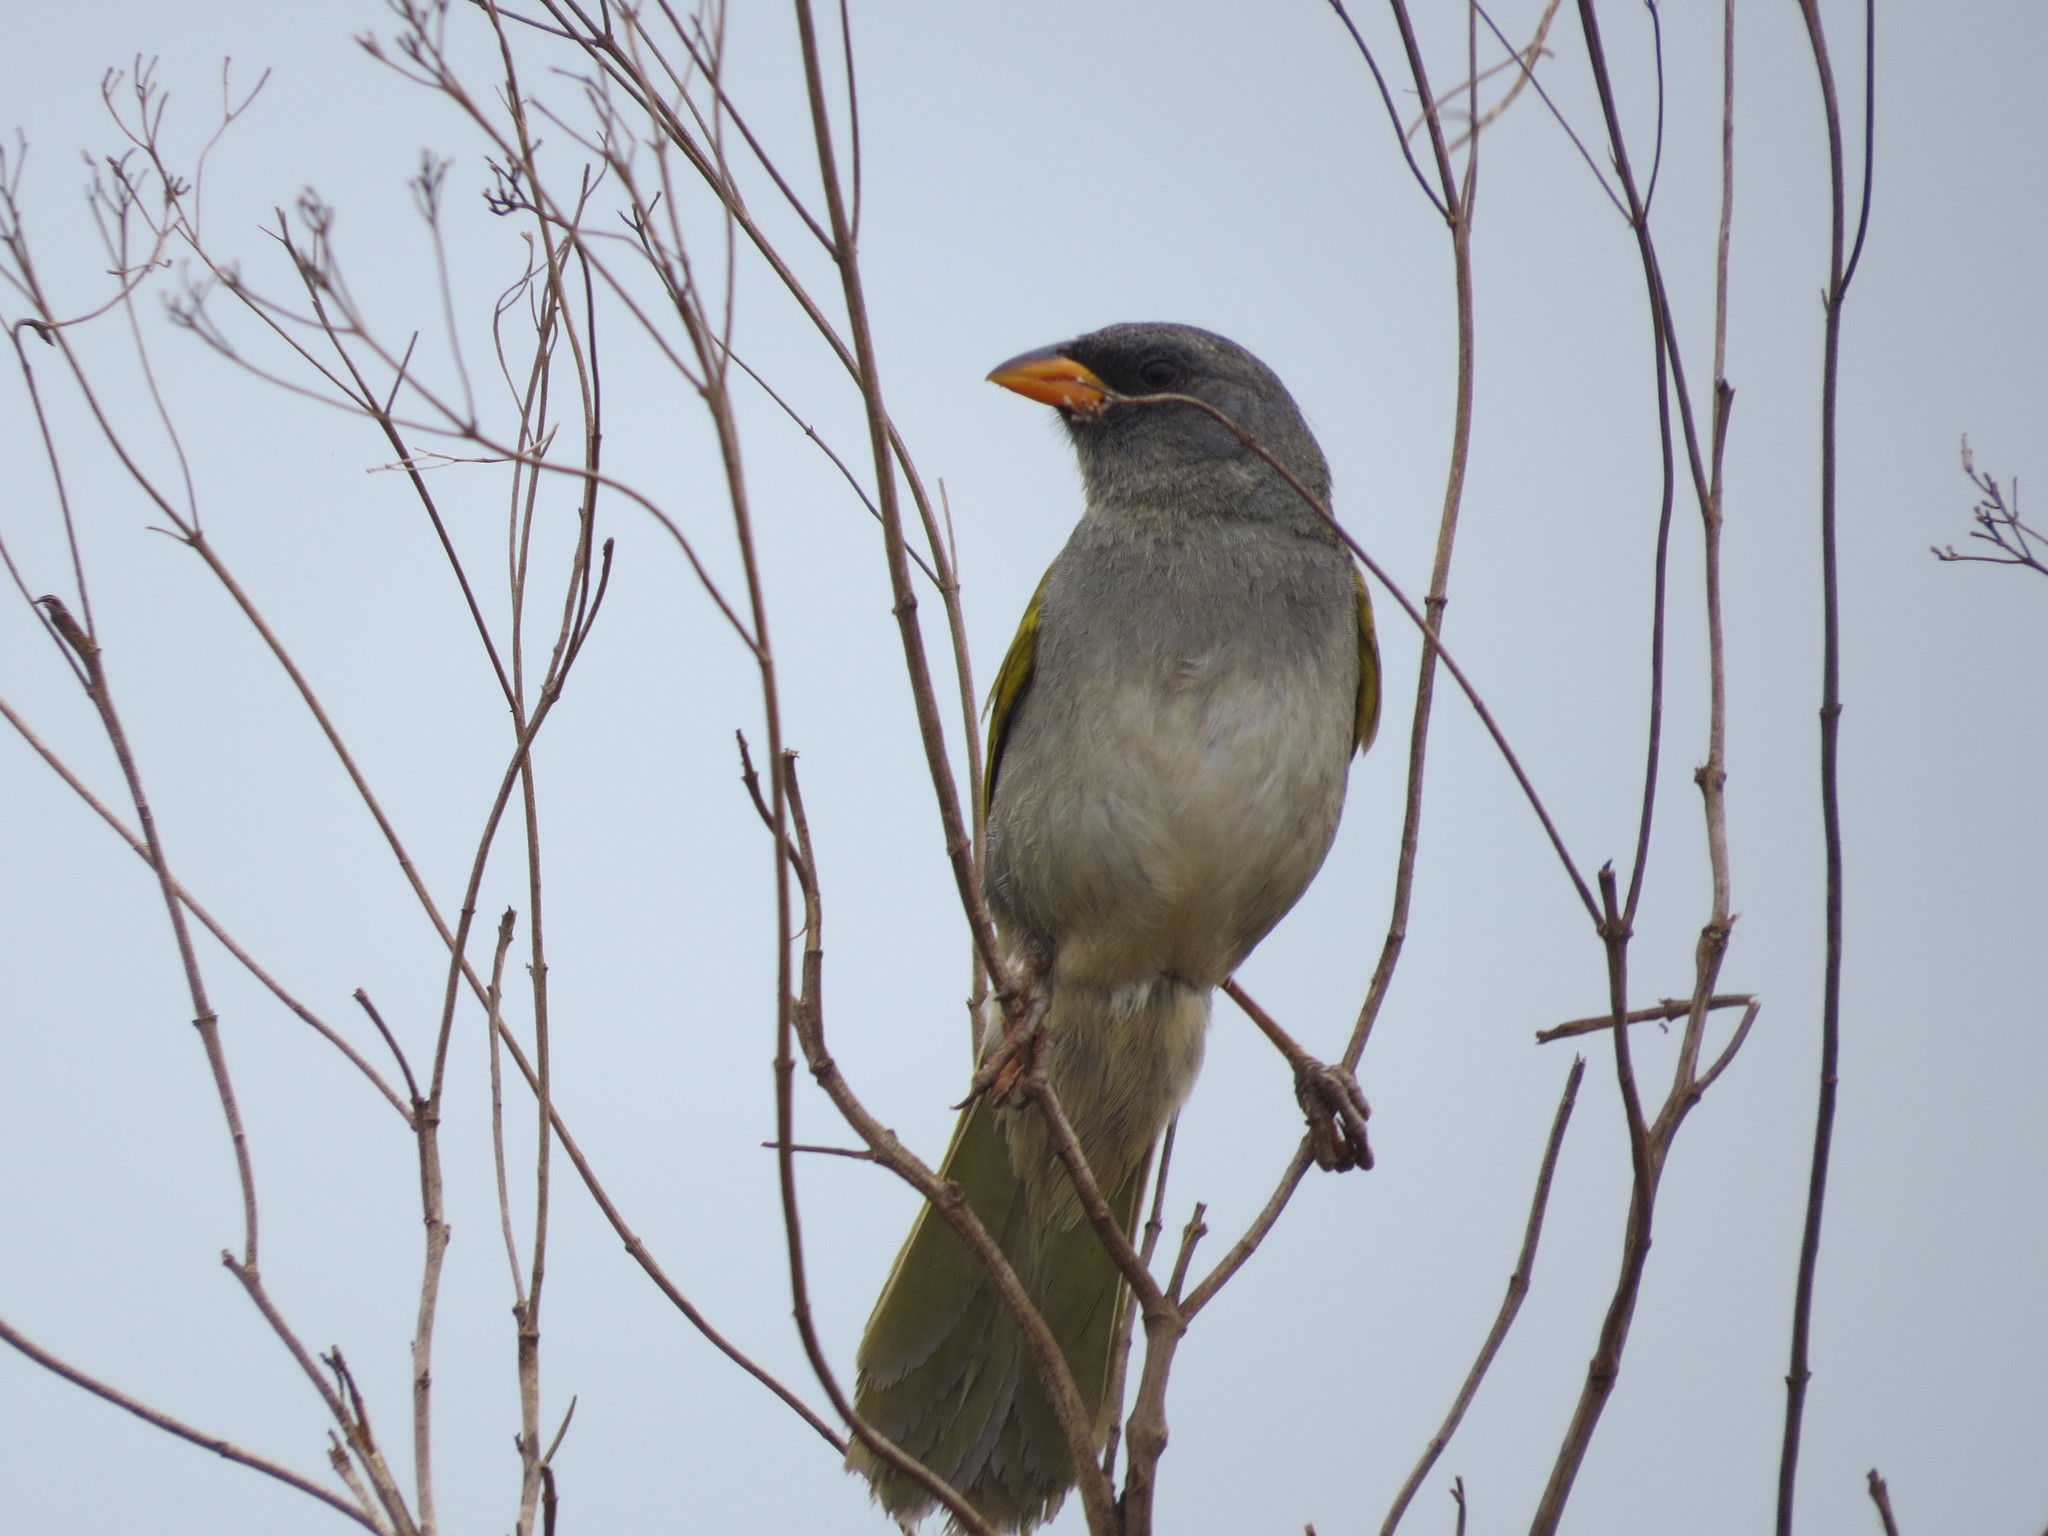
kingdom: Animalia
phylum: Chordata
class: Aves
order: Passeriformes
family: Thraupidae
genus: Embernagra
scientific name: Embernagra platensis
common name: Pampa finch
